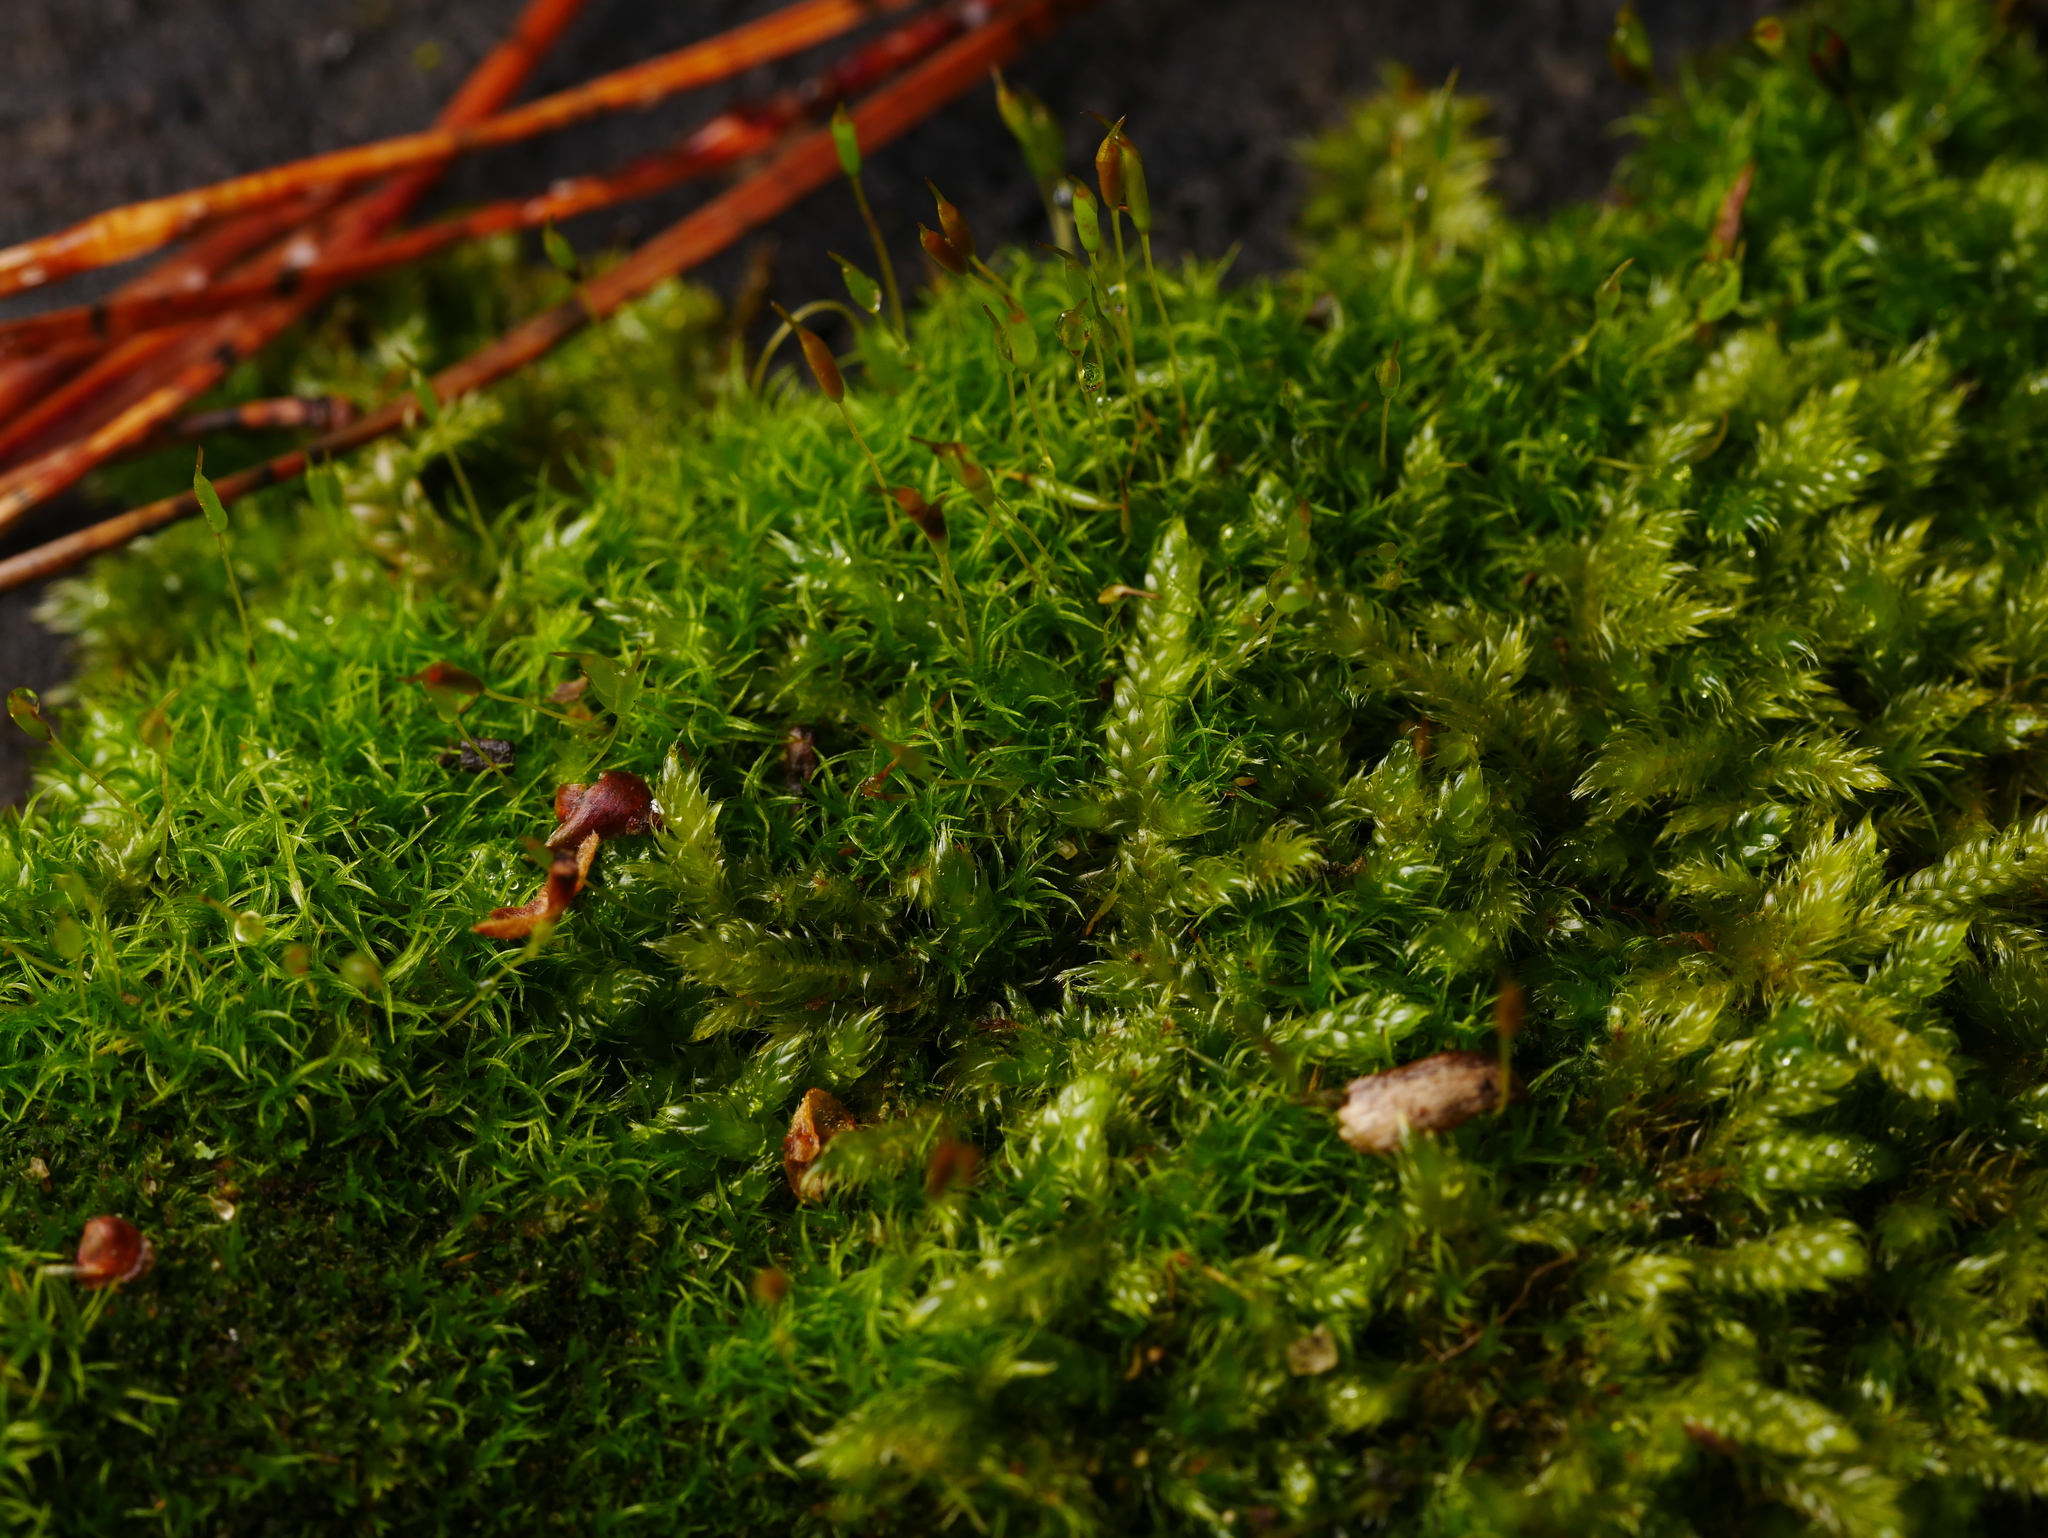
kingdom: Plantae
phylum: Bryophyta
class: Bryopsida
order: Hypnales
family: Hypnaceae
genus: Hypnum
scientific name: Hypnum cupressiforme
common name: Cypress-leaved plait-moss
